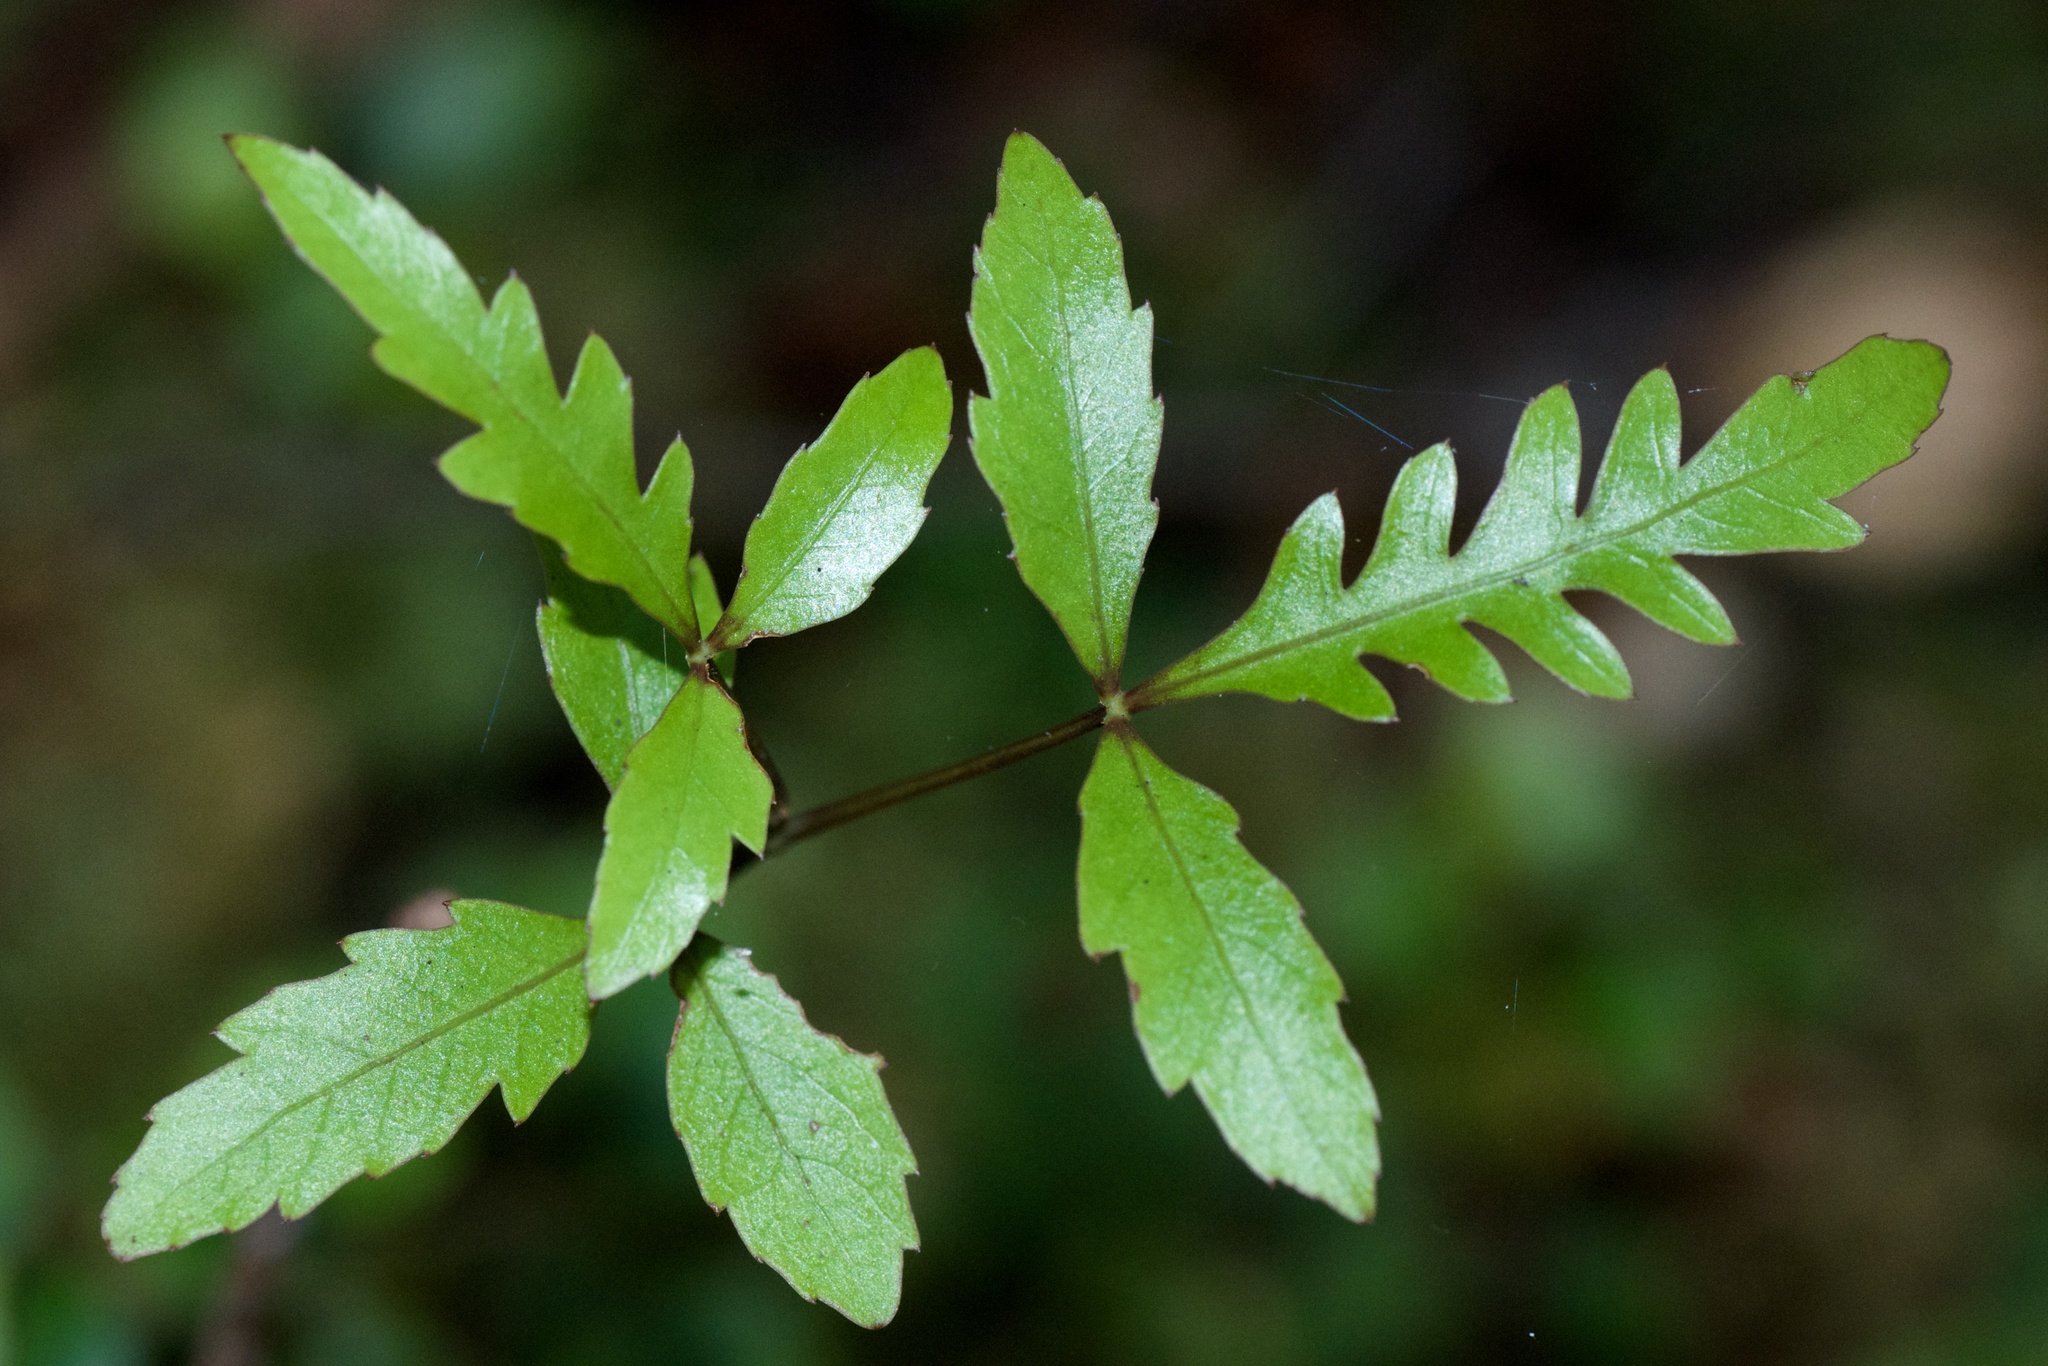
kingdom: Plantae
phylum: Tracheophyta
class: Magnoliopsida
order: Apiales
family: Araliaceae
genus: Raukaua
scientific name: Raukaua simplex
